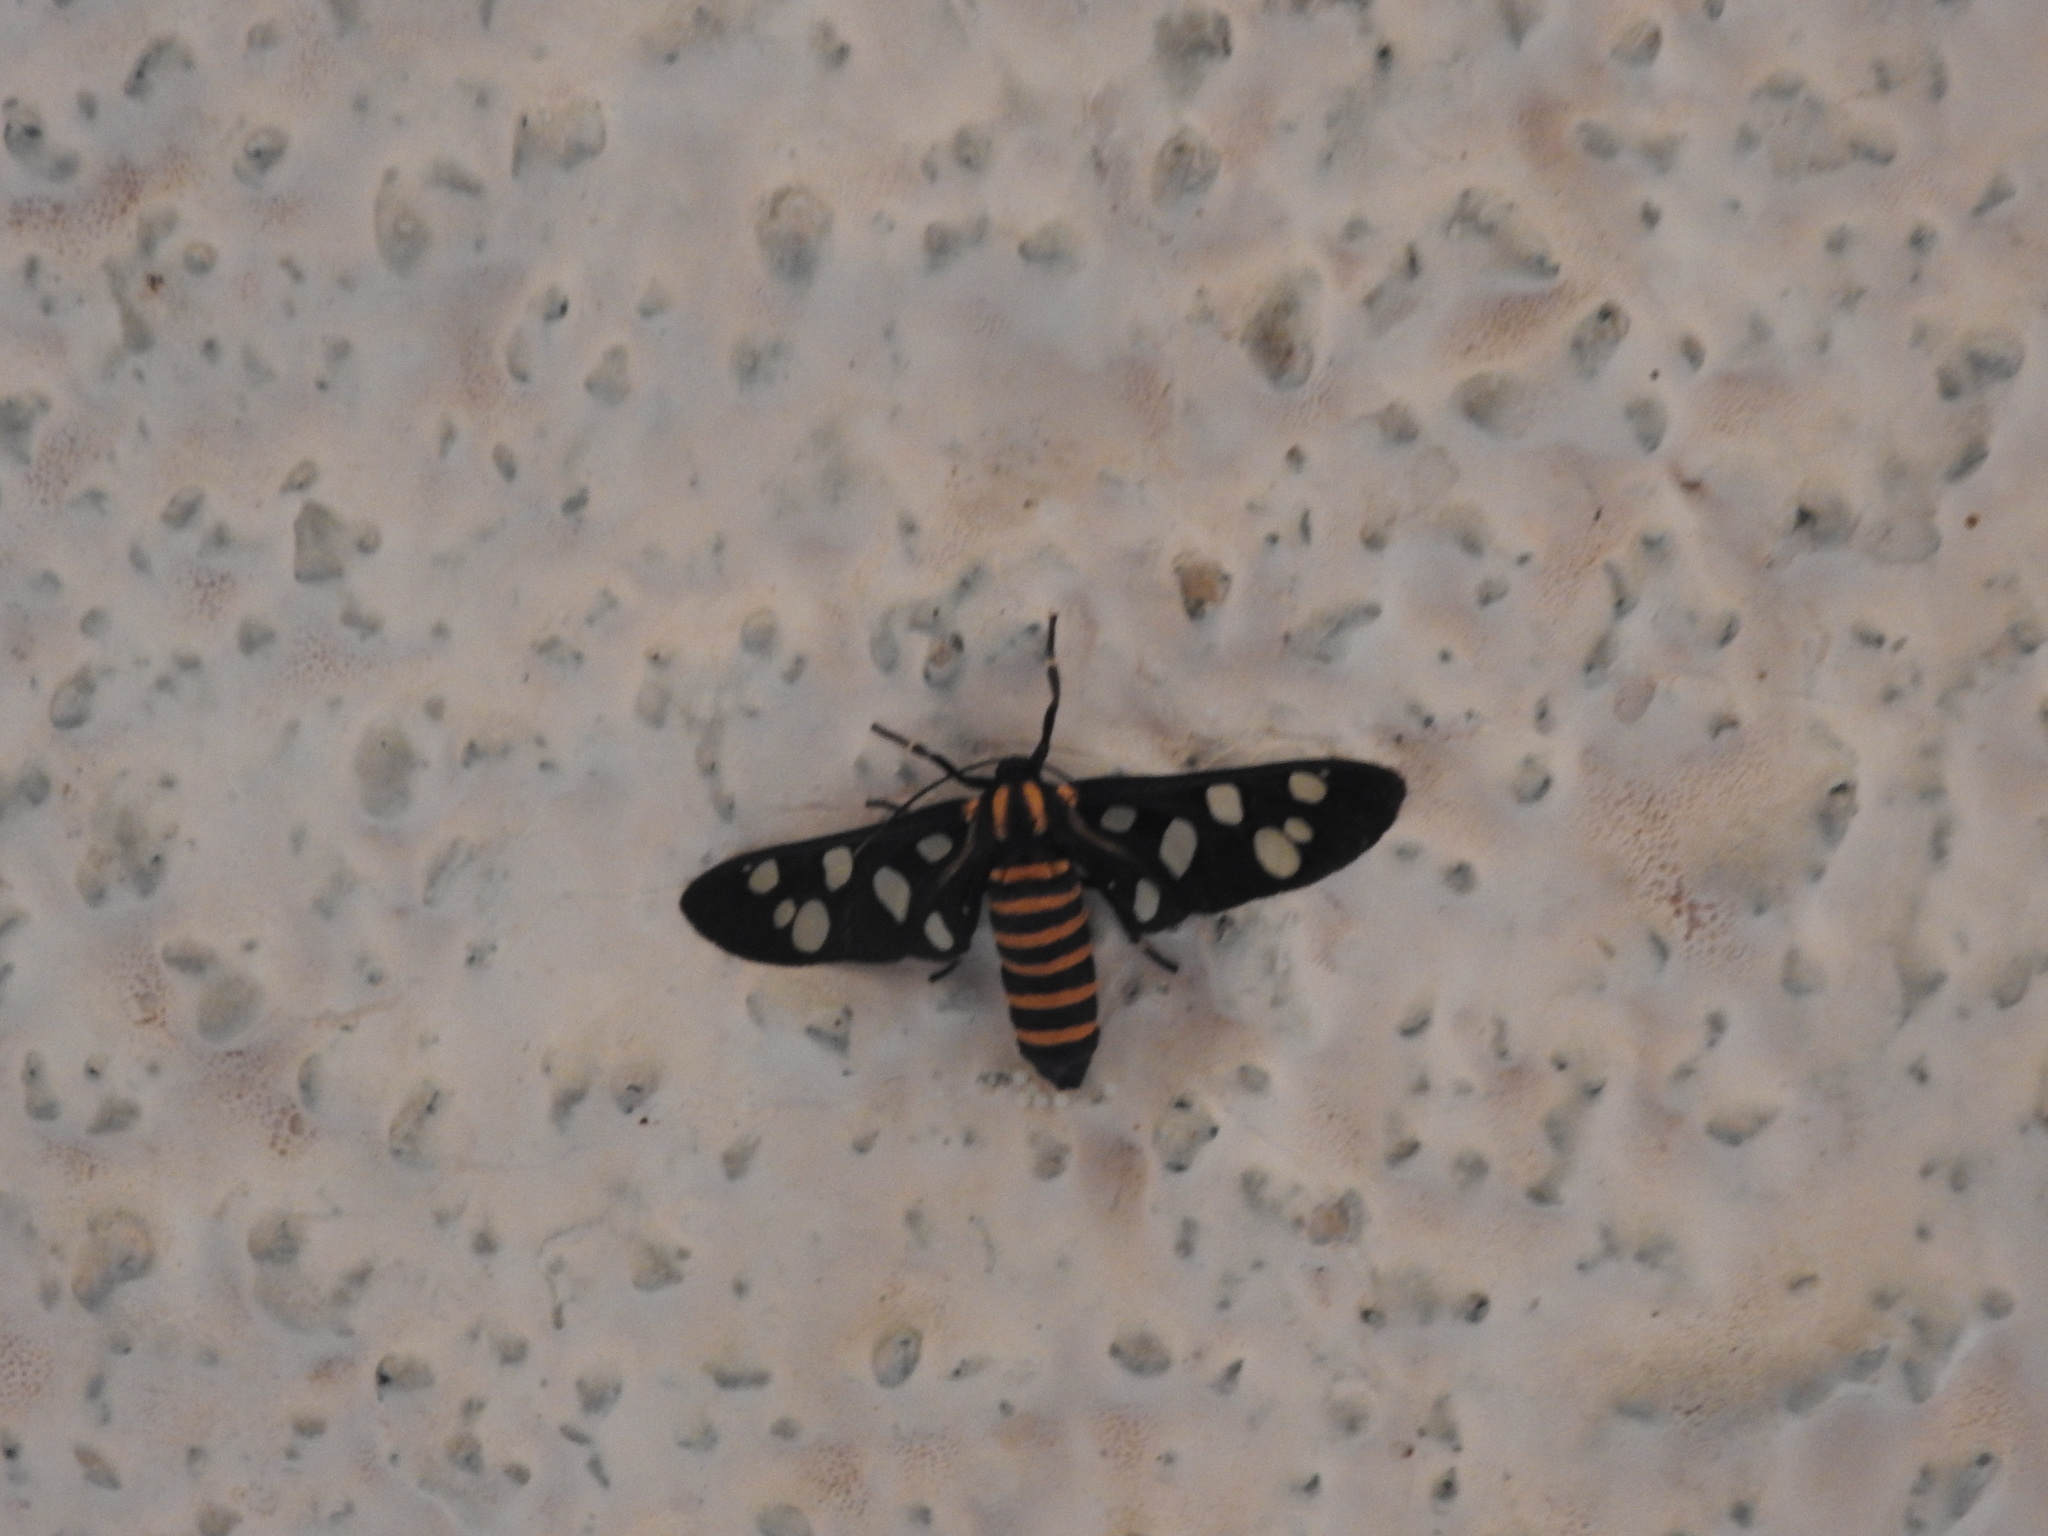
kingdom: Animalia
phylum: Arthropoda
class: Insecta
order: Lepidoptera
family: Erebidae
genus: Amata
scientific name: Amata passalis
